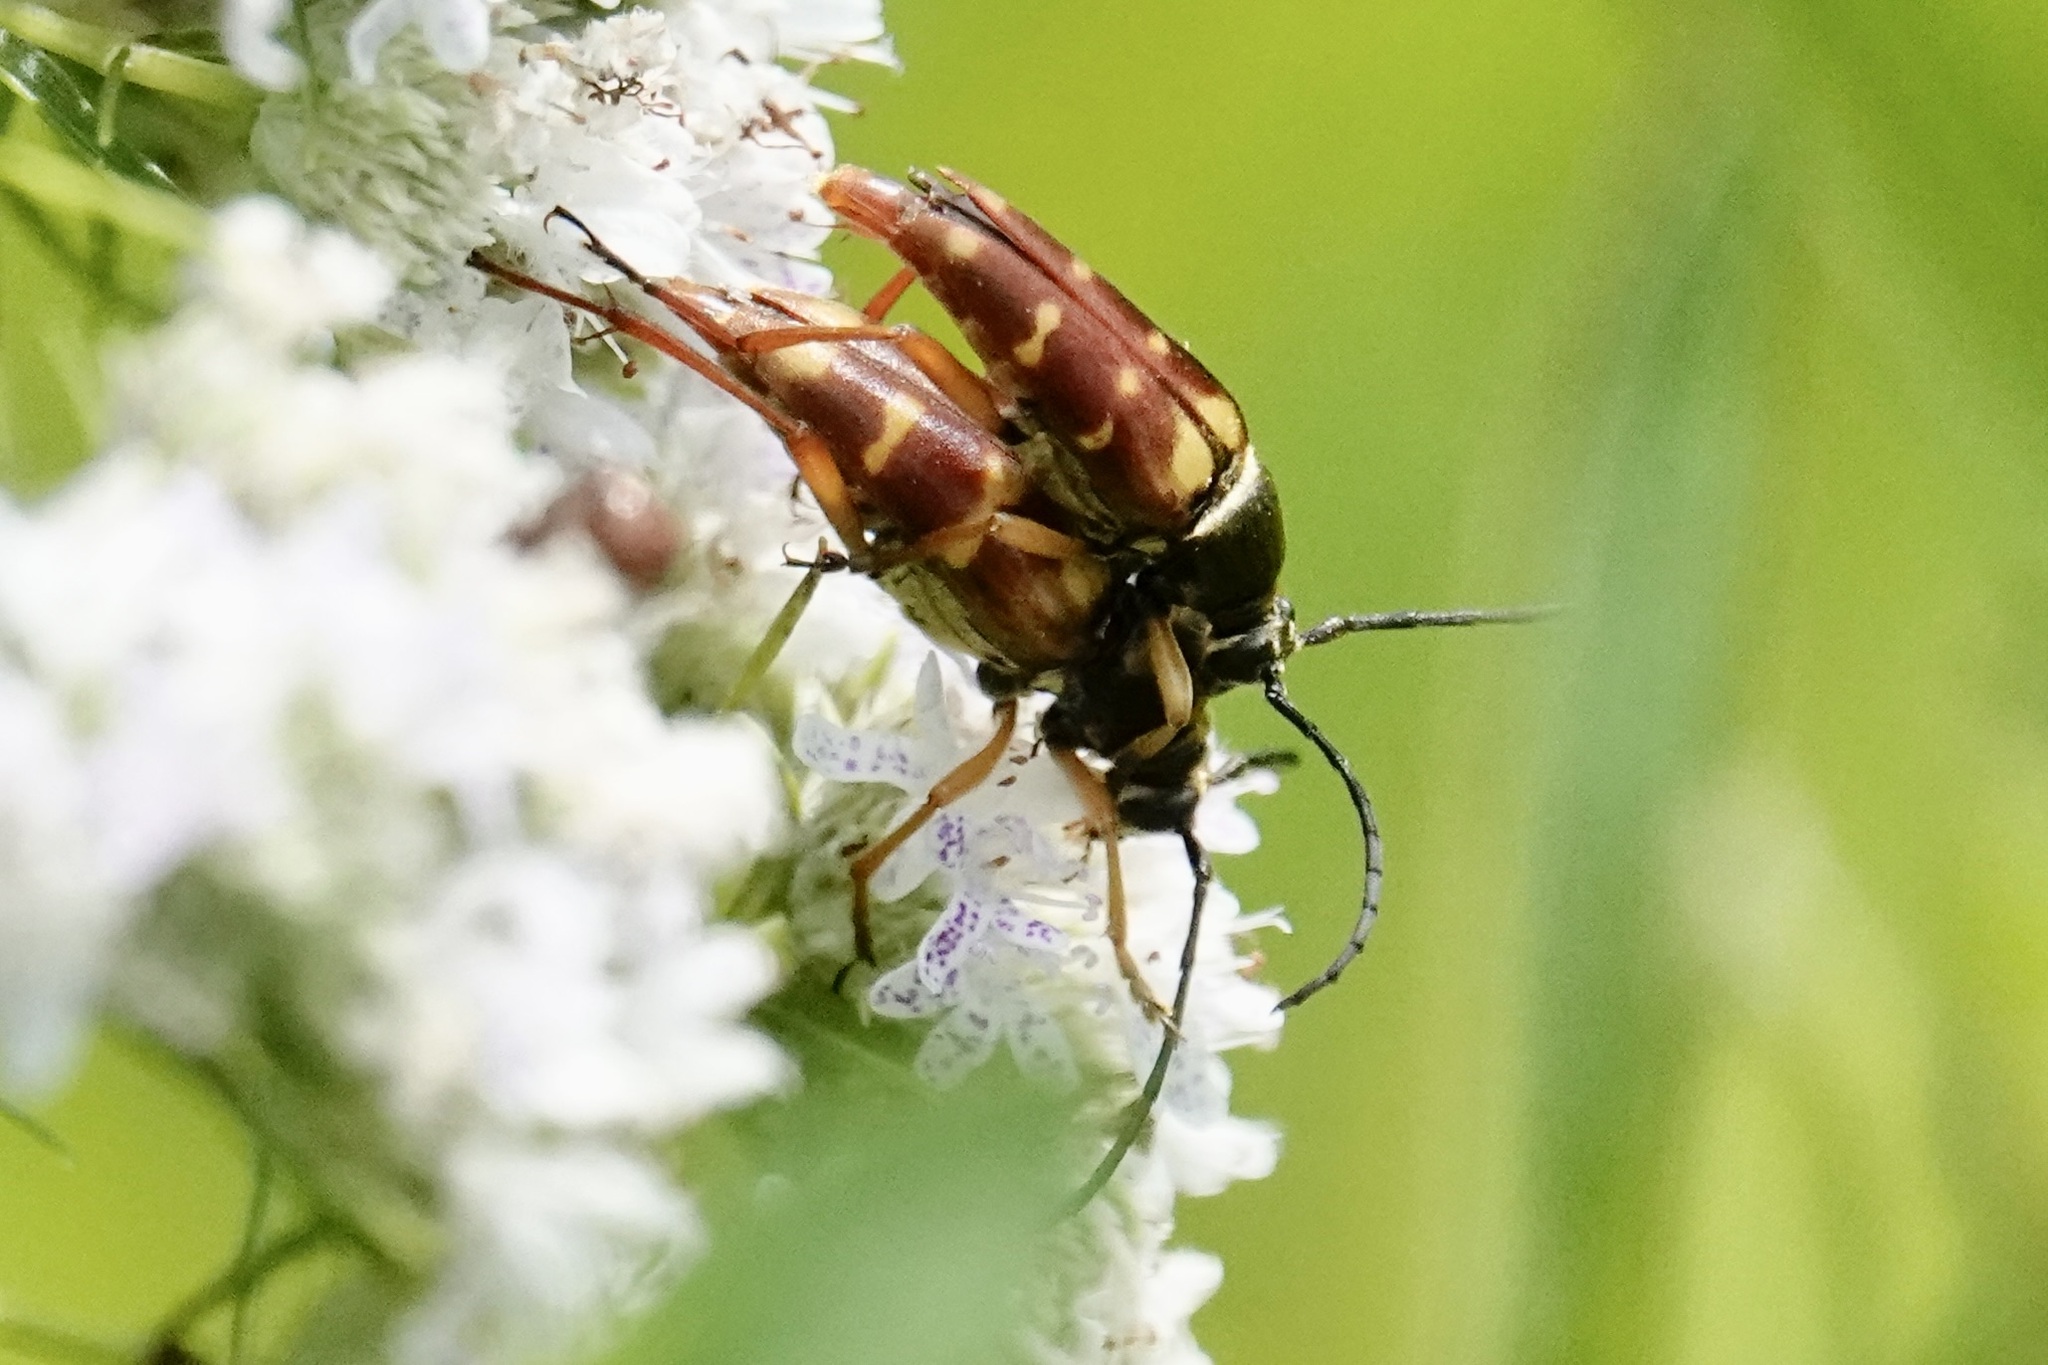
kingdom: Animalia
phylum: Arthropoda
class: Insecta
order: Coleoptera
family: Cerambycidae
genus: Typocerus
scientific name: Typocerus velutinus
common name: Banded longhorn beetle
